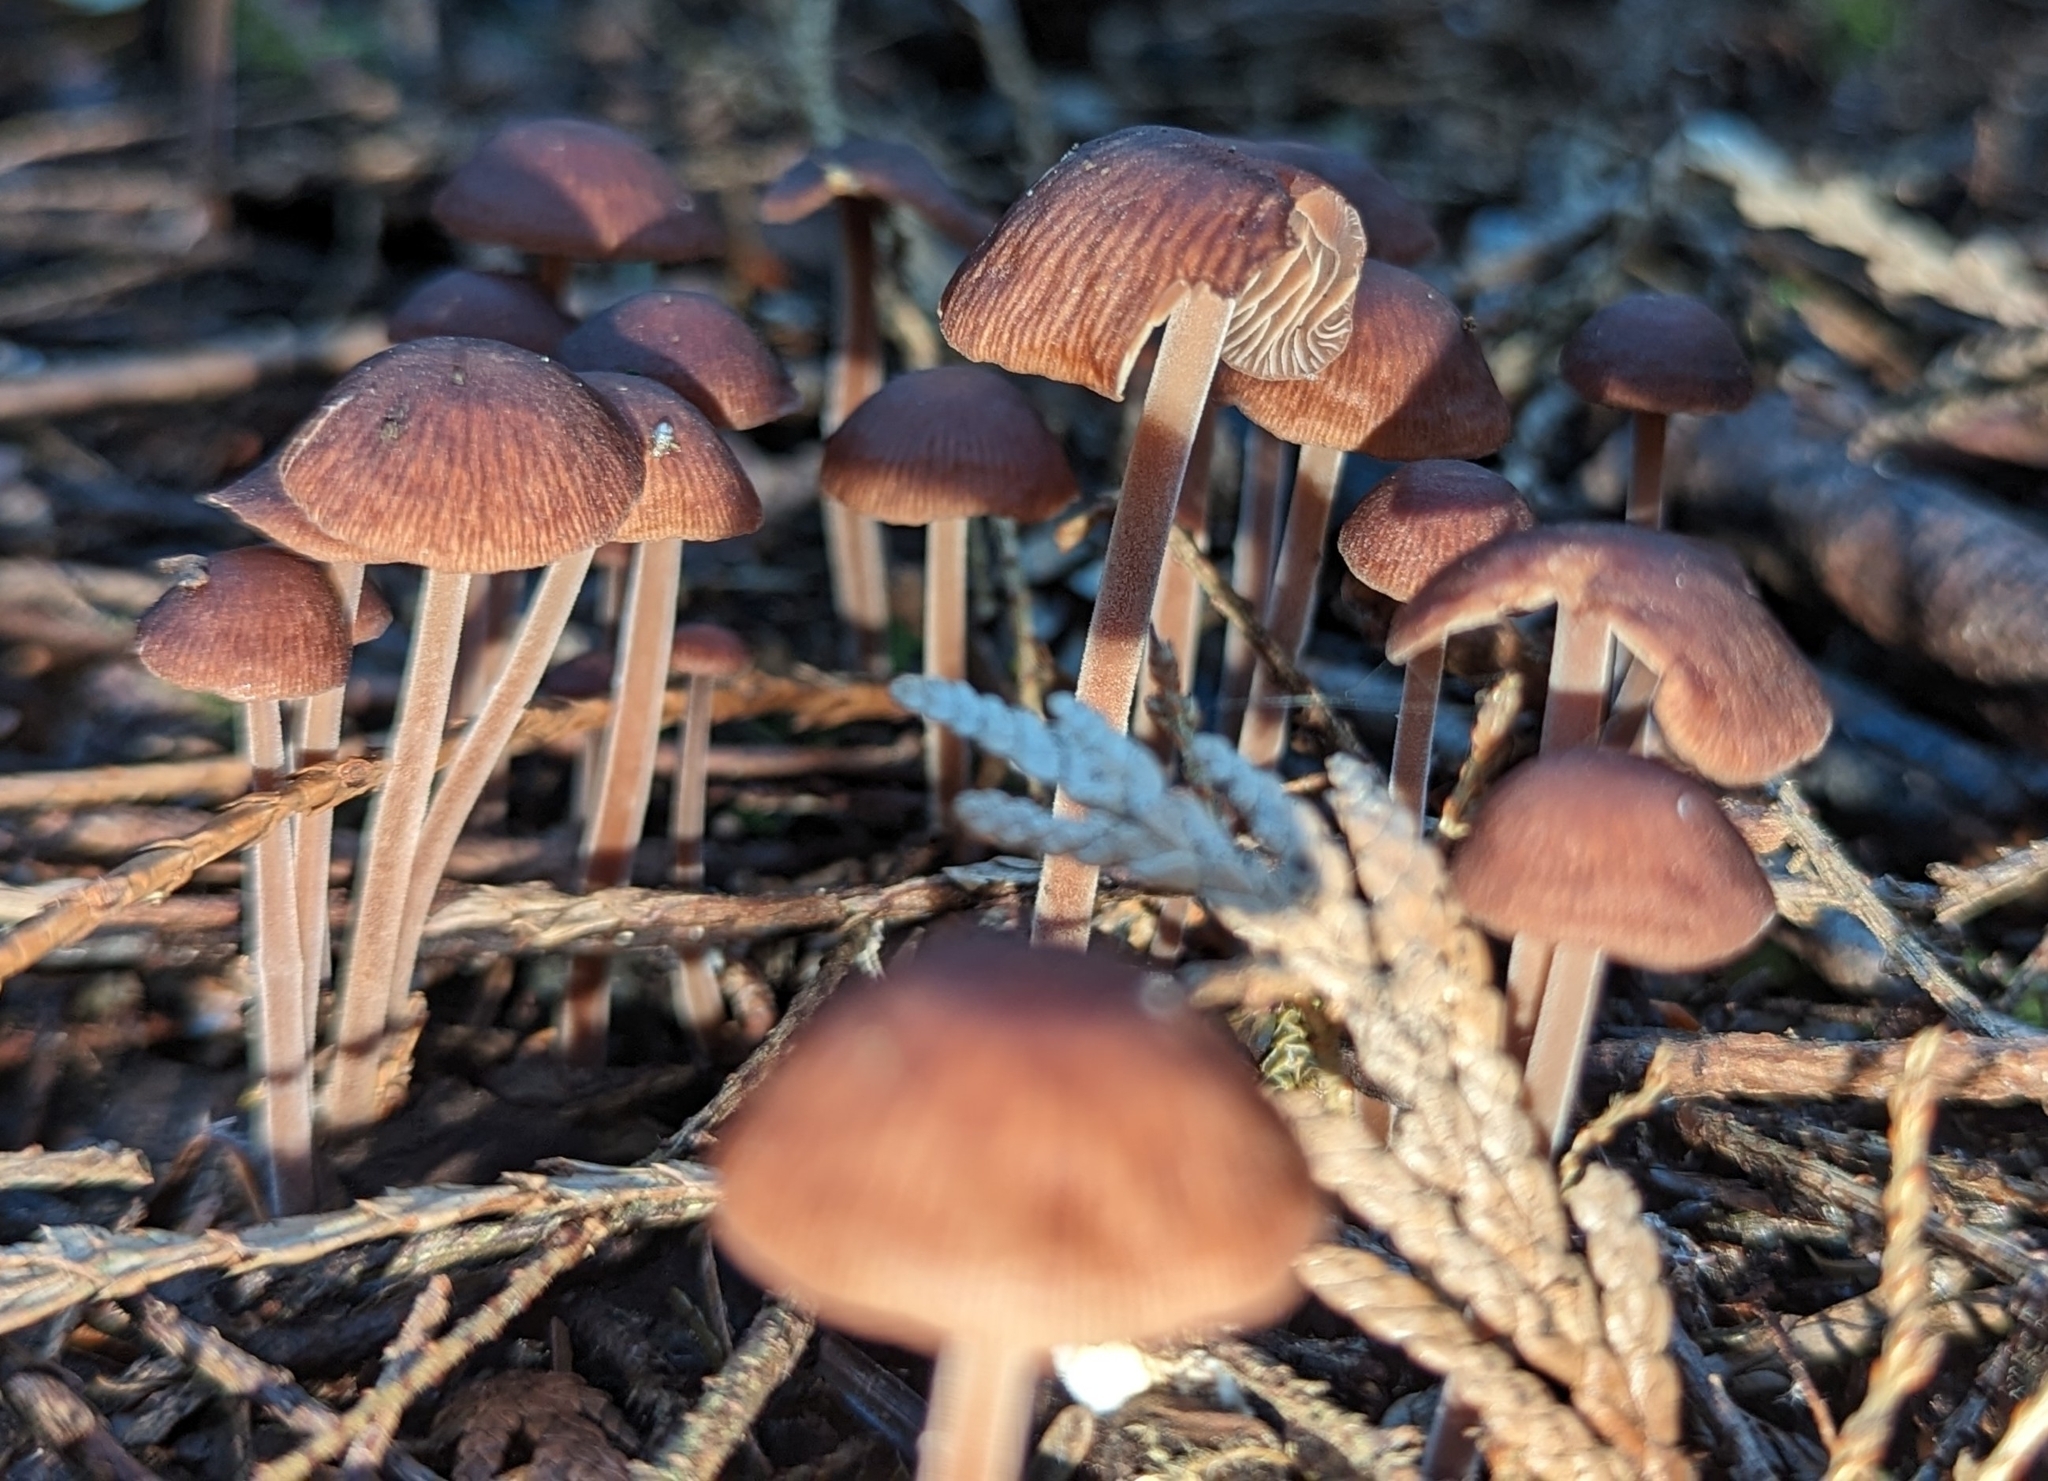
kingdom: Fungi
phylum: Basidiomycota
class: Agaricomycetes
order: Agaricales
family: Omphalotaceae
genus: Collybiopsis
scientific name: Collybiopsis villosipes
